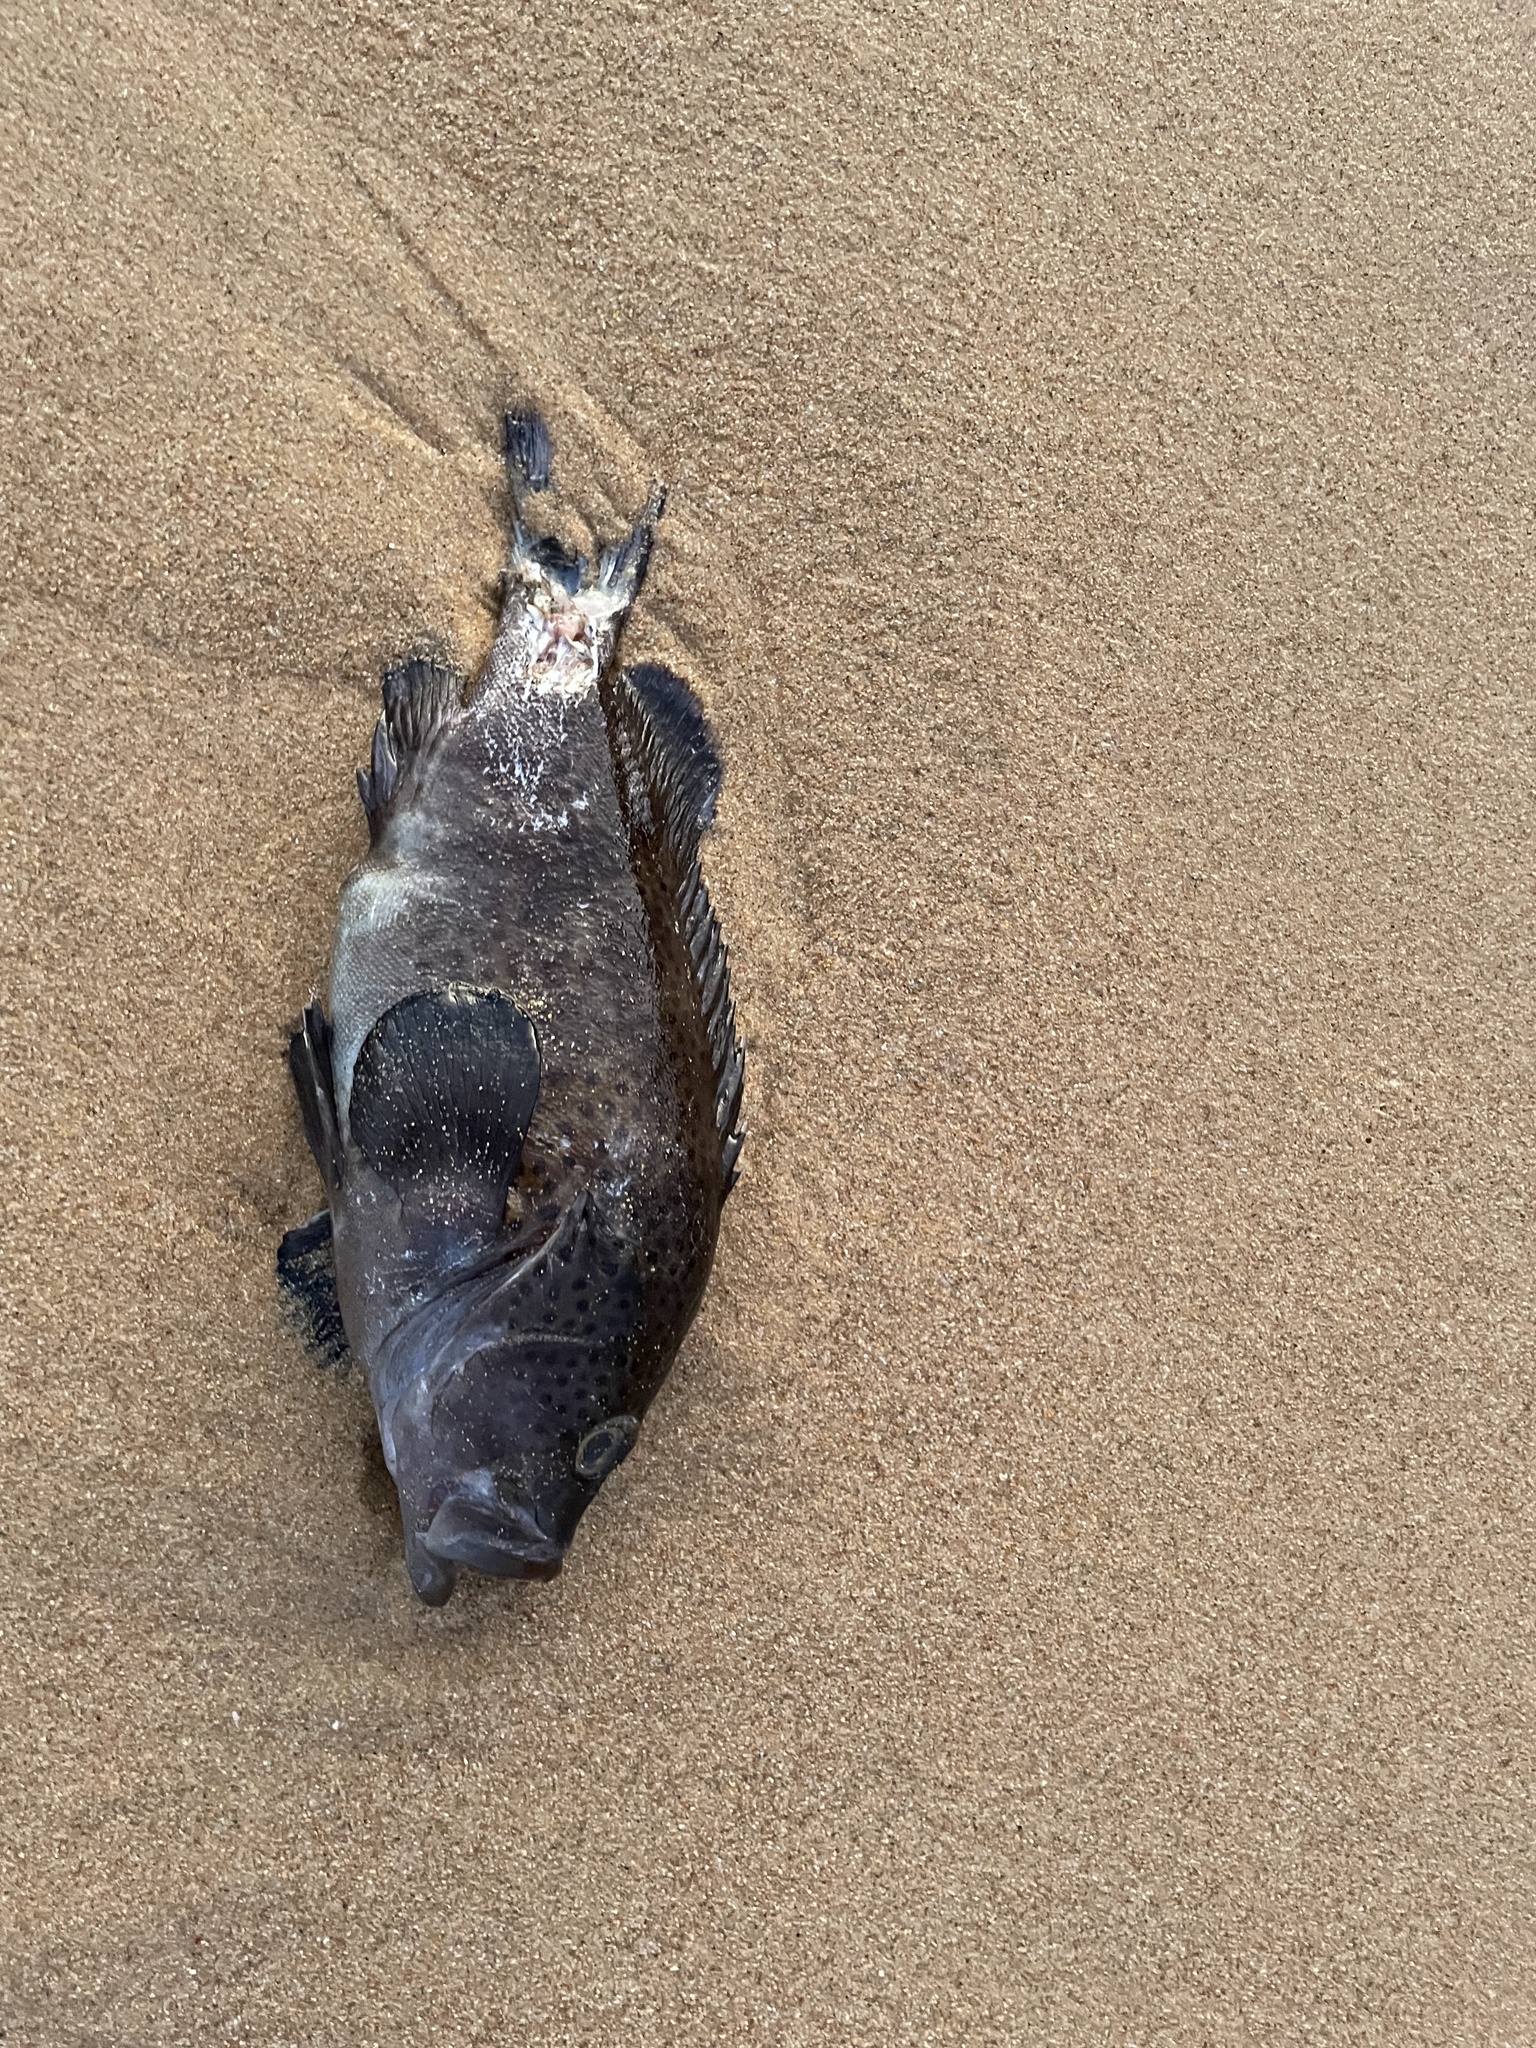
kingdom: Animalia
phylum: Chordata
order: Perciformes
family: Serranidae
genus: Acanthistius
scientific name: Acanthistius ocellatus
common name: Eastern wirrah
